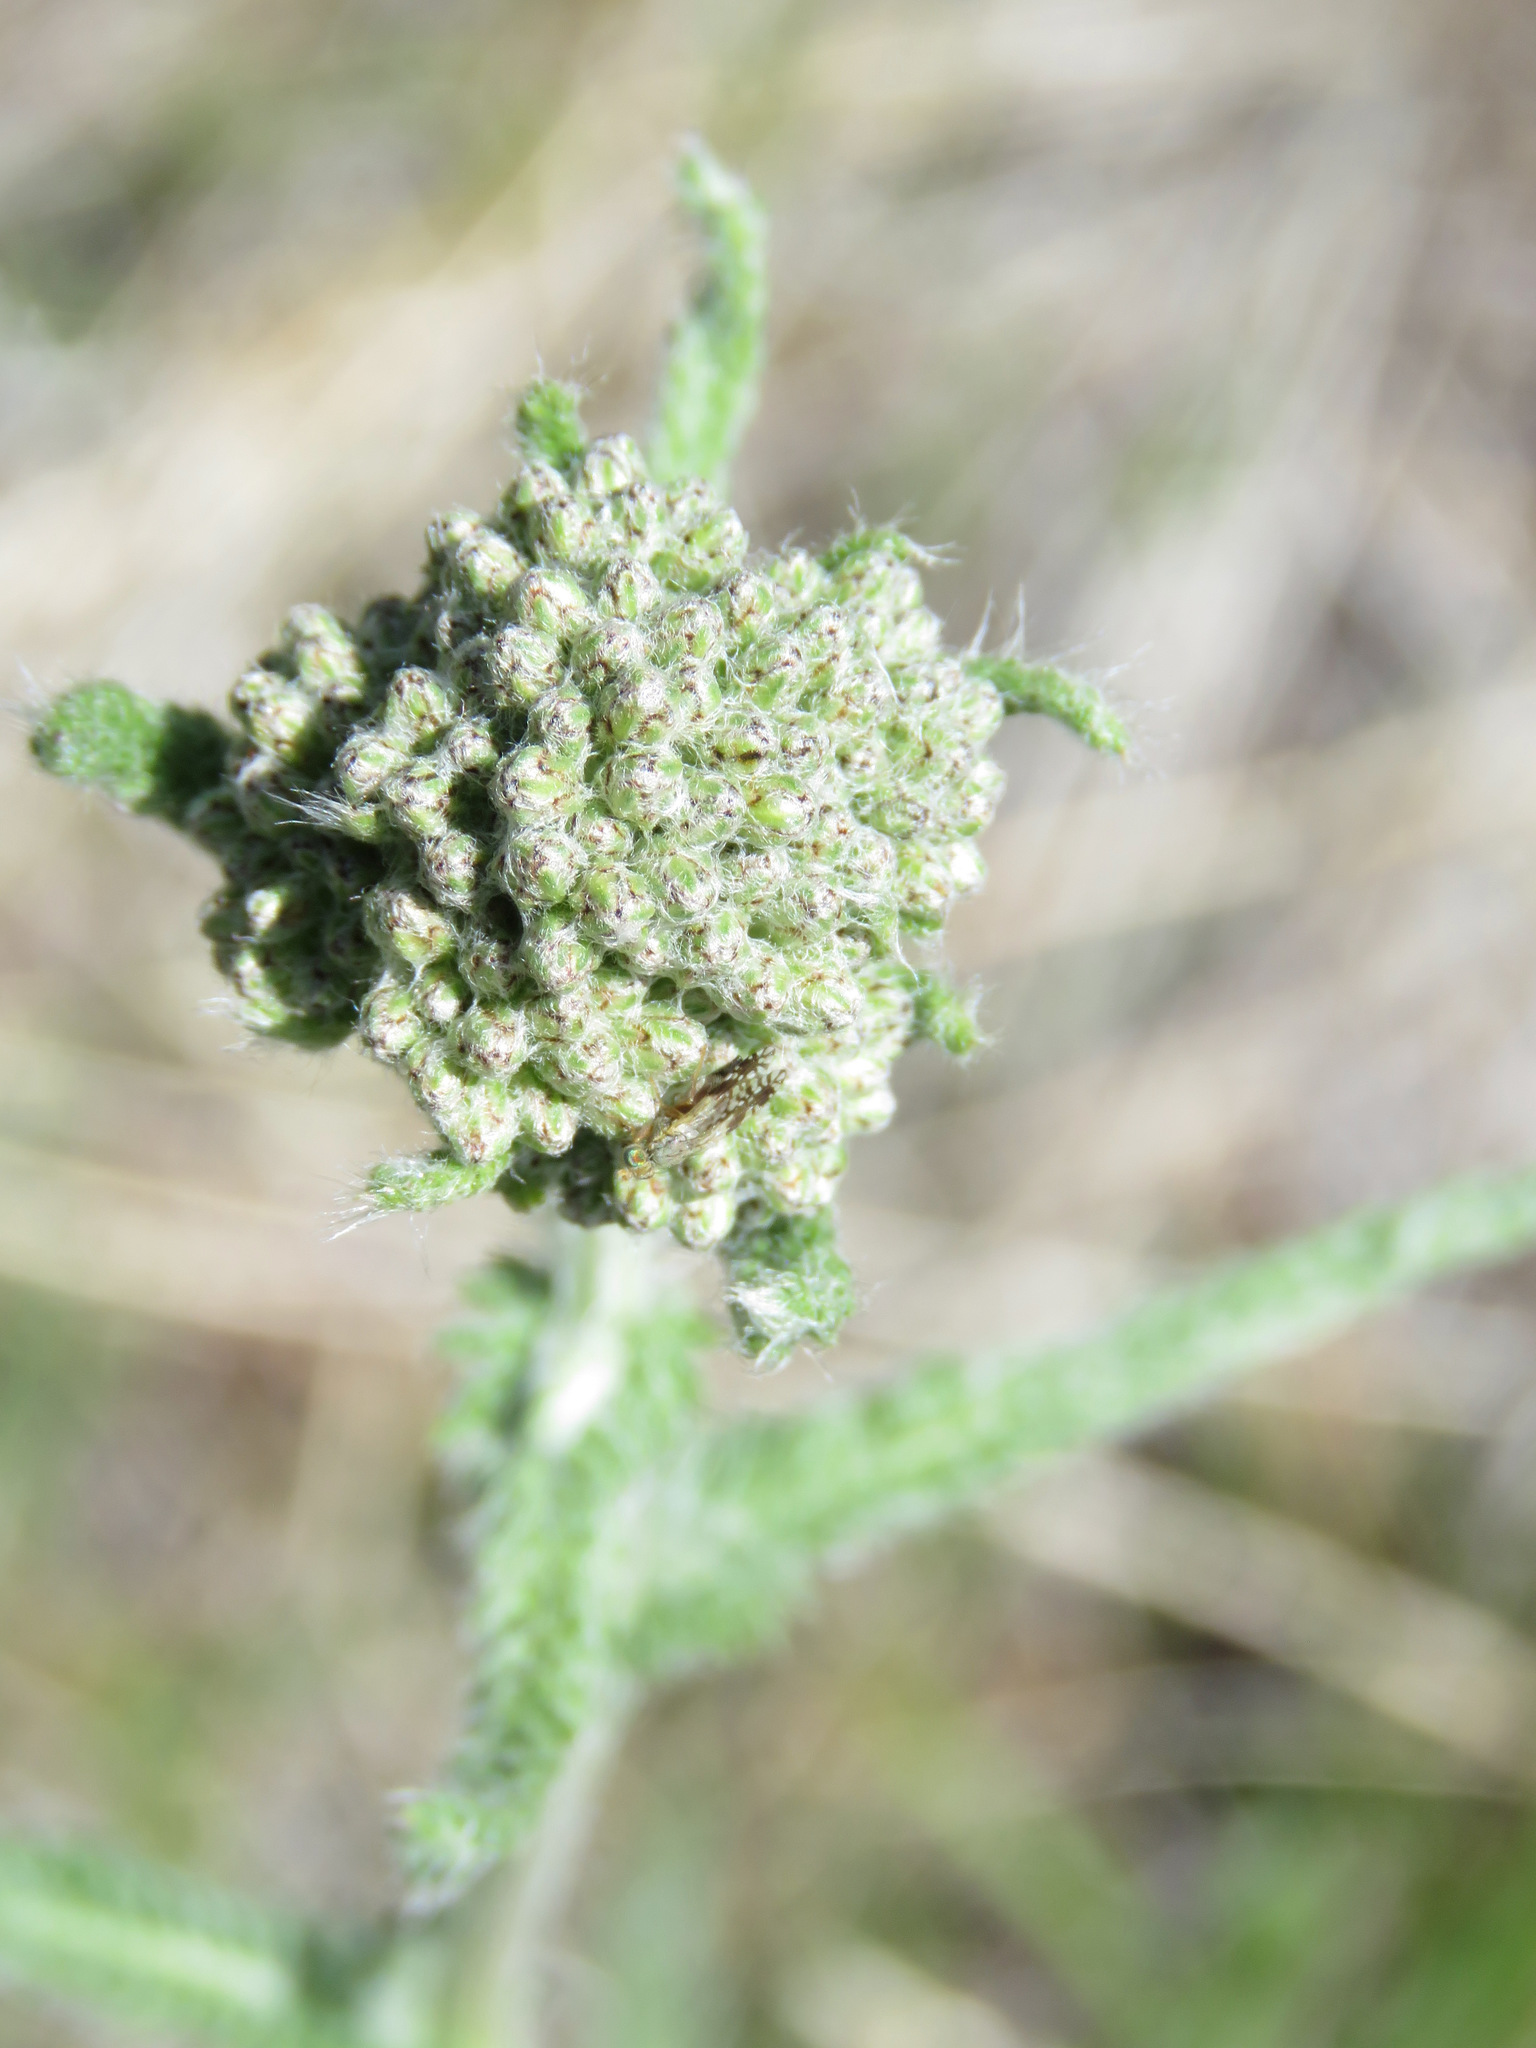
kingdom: Plantae
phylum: Tracheophyta
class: Magnoliopsida
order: Asterales
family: Asteraceae
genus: Achillea
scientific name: Achillea millefolium
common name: Yarrow
